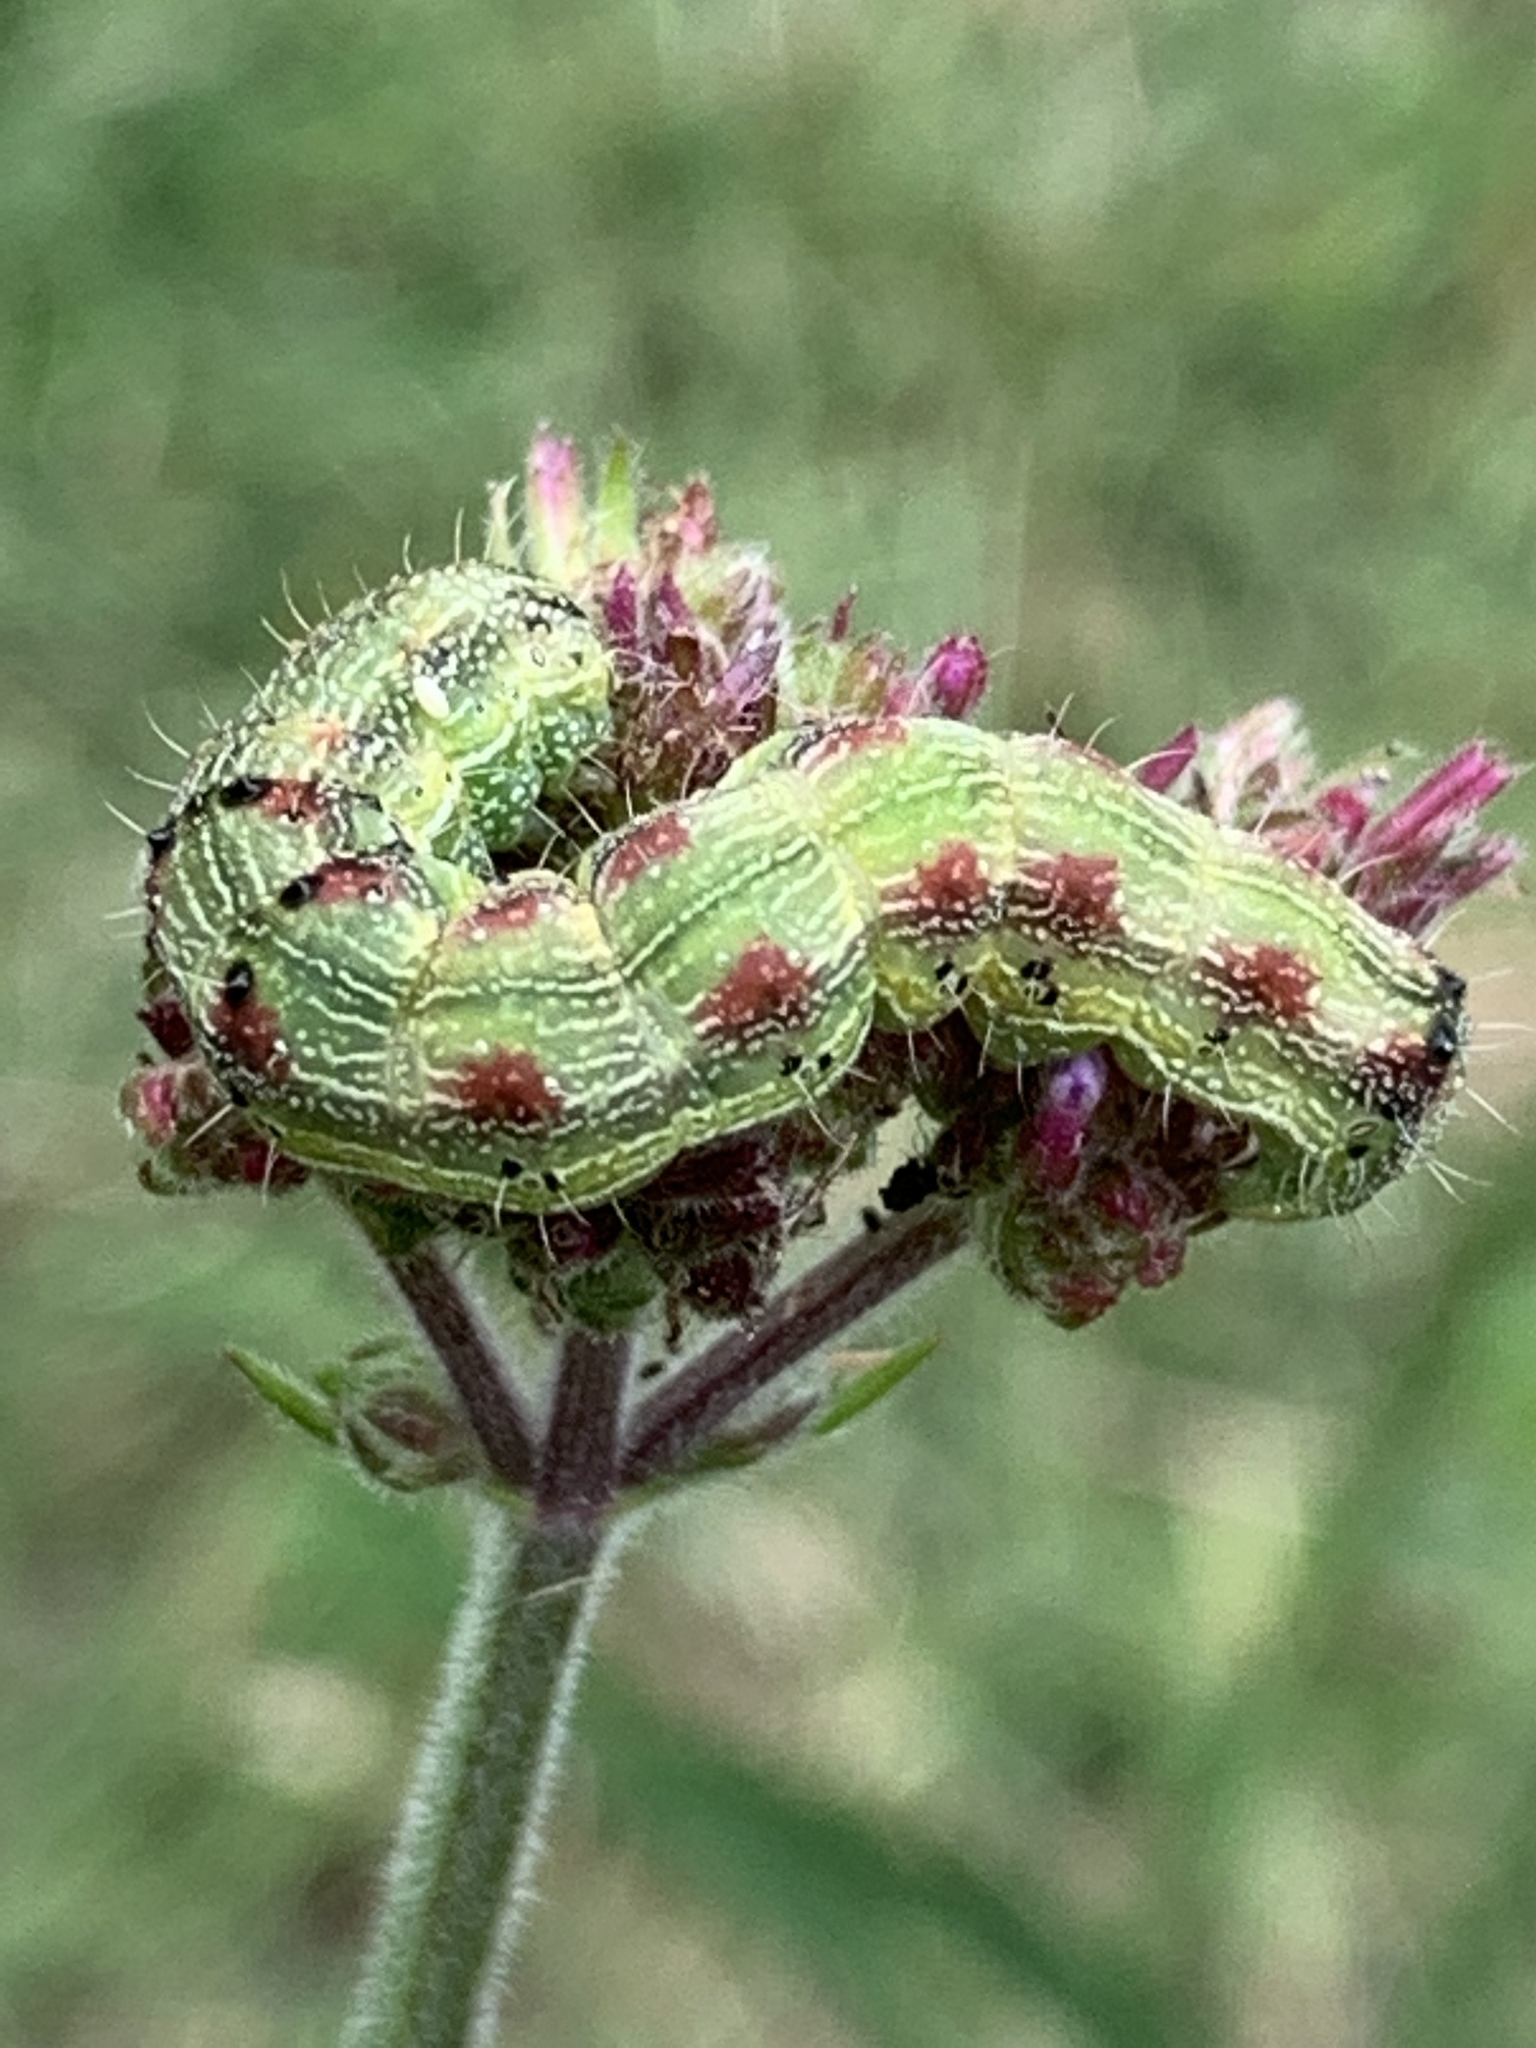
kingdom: Animalia
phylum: Arthropoda
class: Insecta
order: Lepidoptera
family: Noctuidae
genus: Chloridea
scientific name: Chloridea virescens
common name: Tobacco budworm
